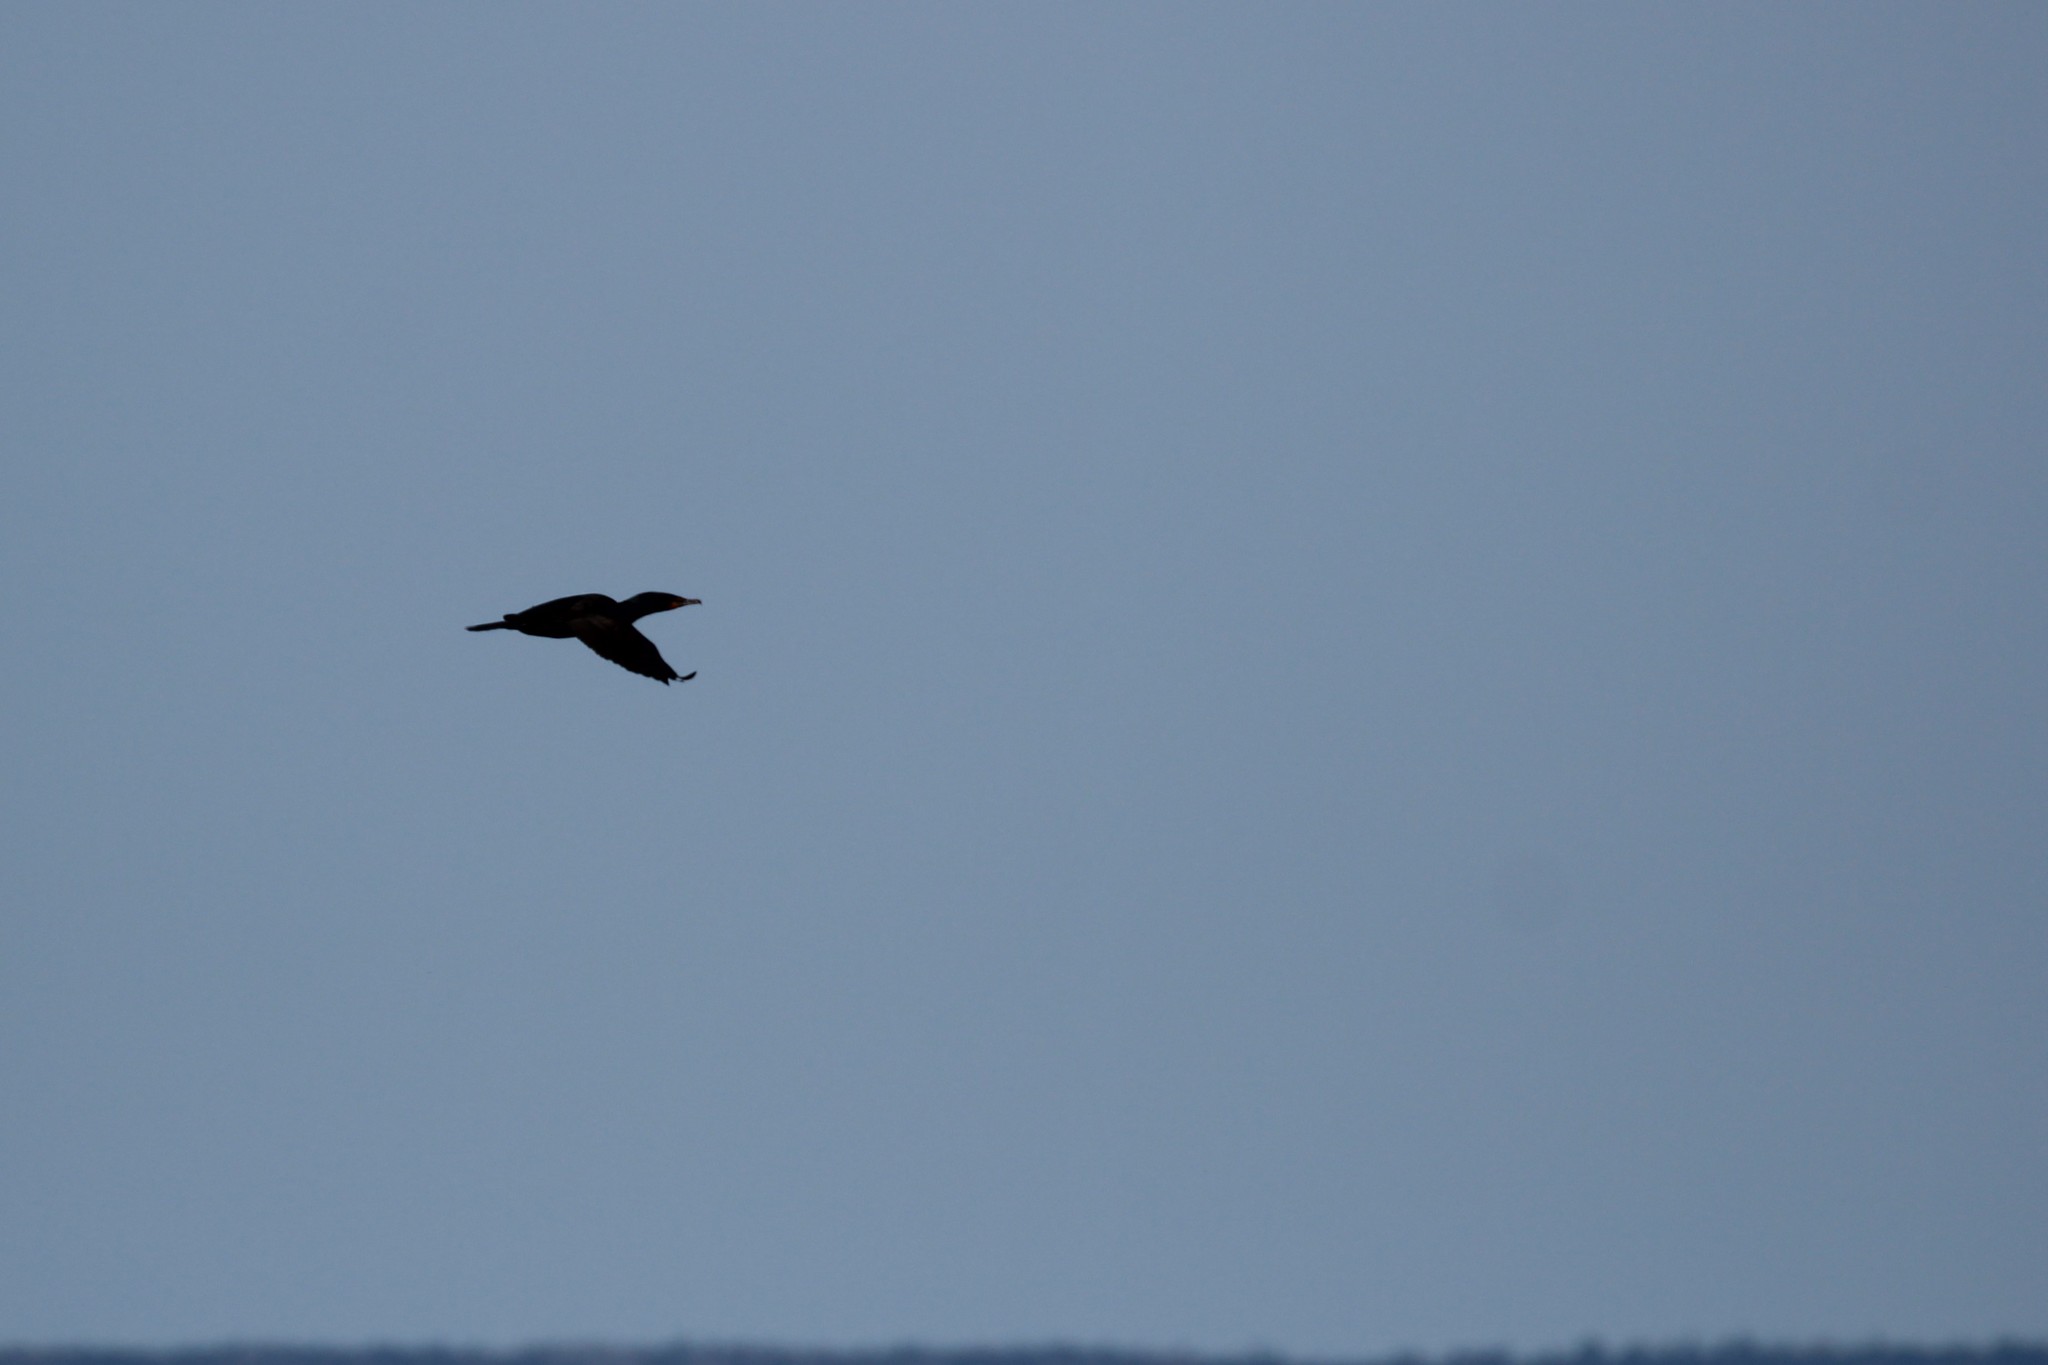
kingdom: Animalia
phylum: Chordata
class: Aves
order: Suliformes
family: Phalacrocoracidae
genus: Phalacrocorax
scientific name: Phalacrocorax auritus
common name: Double-crested cormorant
